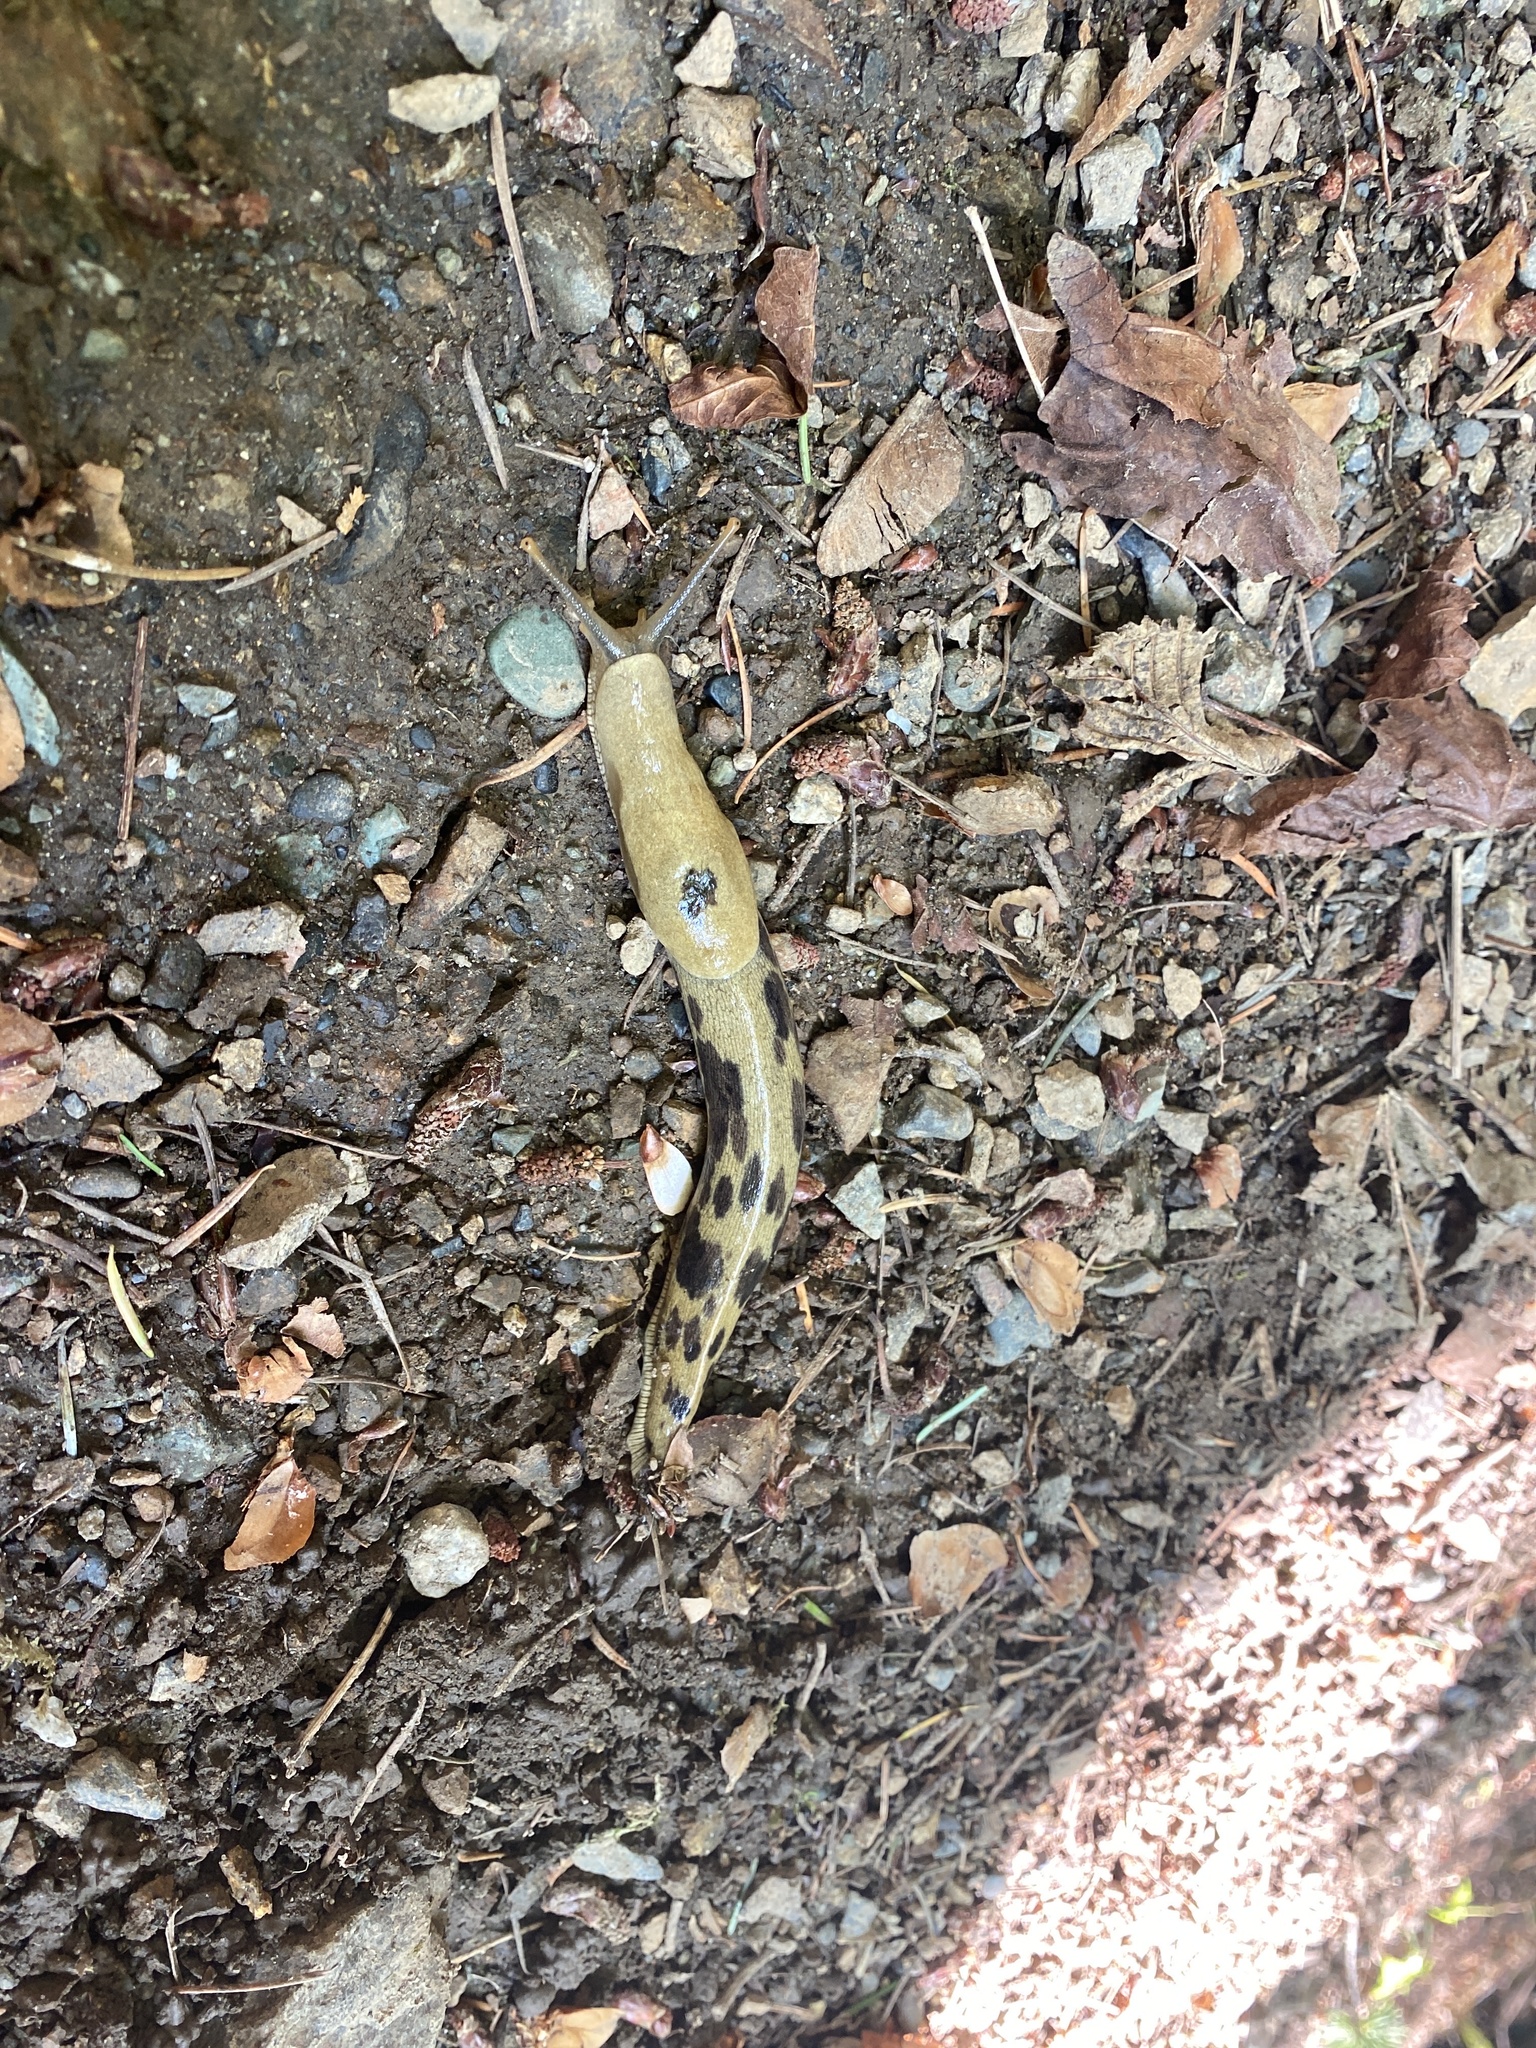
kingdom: Animalia
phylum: Mollusca
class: Gastropoda
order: Stylommatophora
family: Ariolimacidae
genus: Ariolimax
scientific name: Ariolimax columbianus
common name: Pacific banana slug
